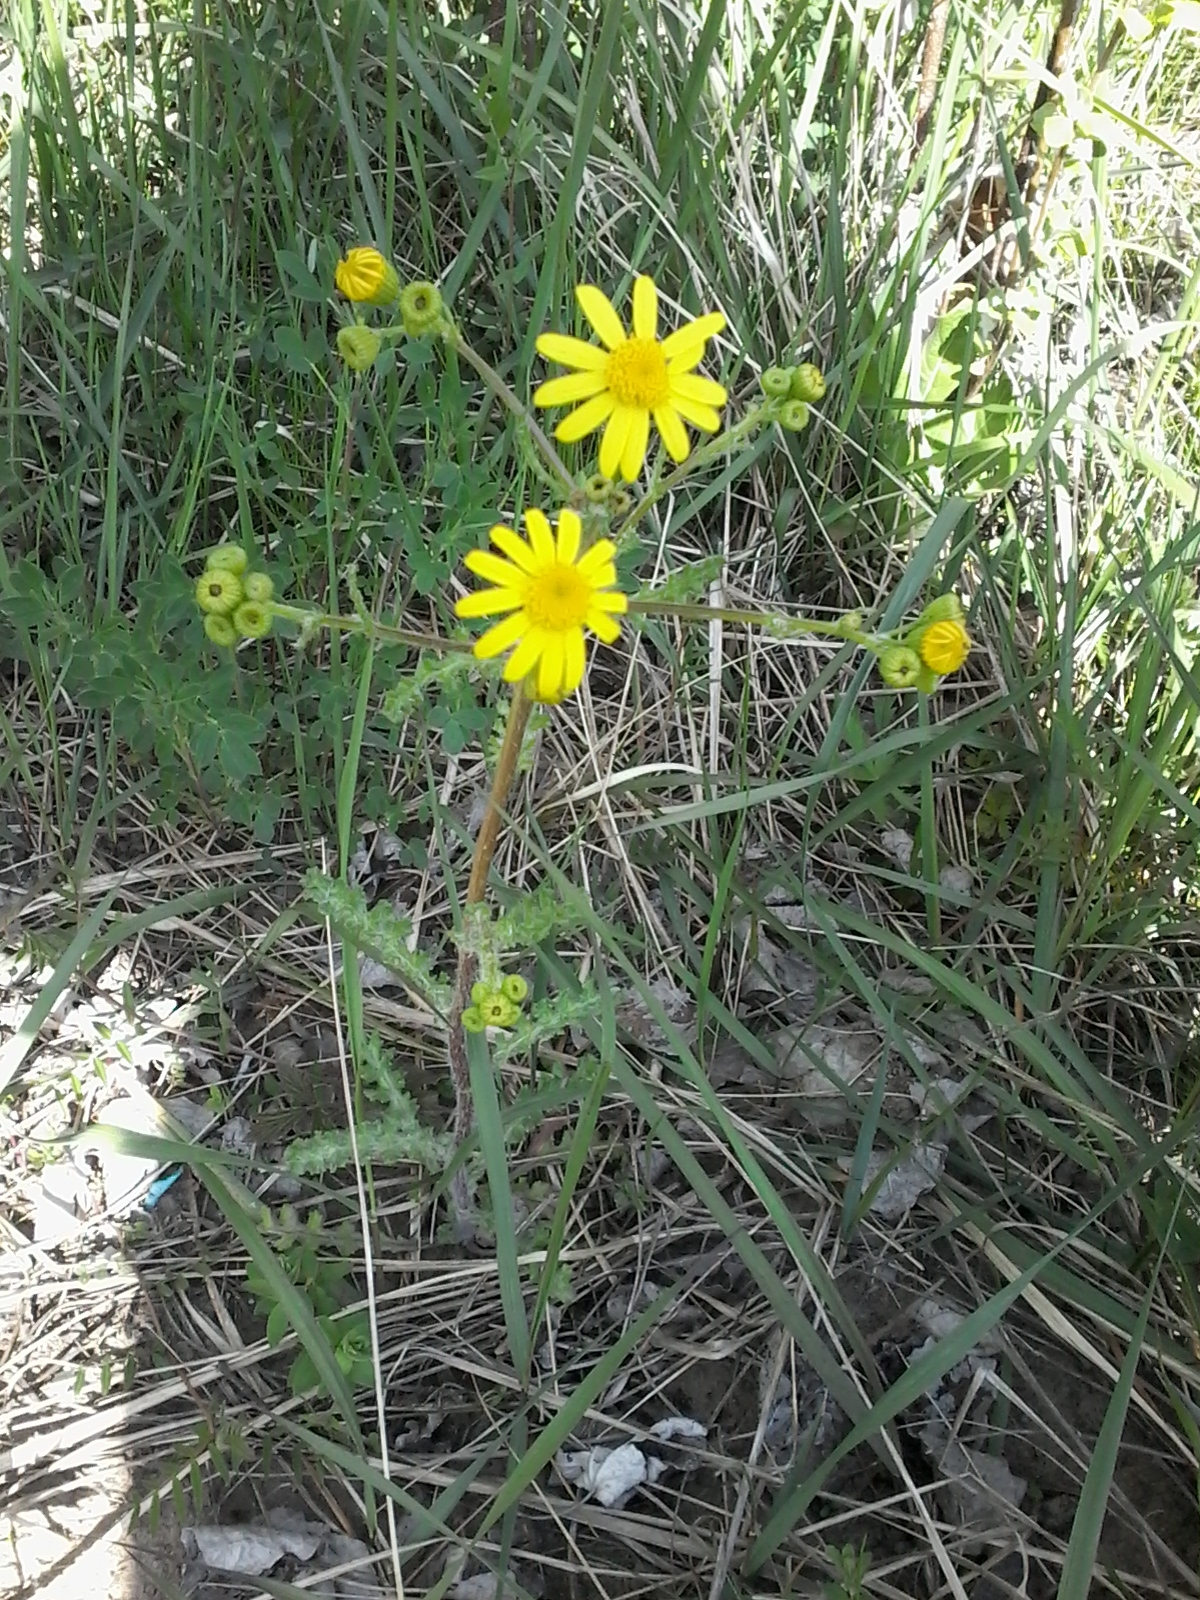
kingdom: Plantae
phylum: Tracheophyta
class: Magnoliopsida
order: Asterales
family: Asteraceae
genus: Senecio
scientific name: Senecio vernalis
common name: Eastern groundsel
